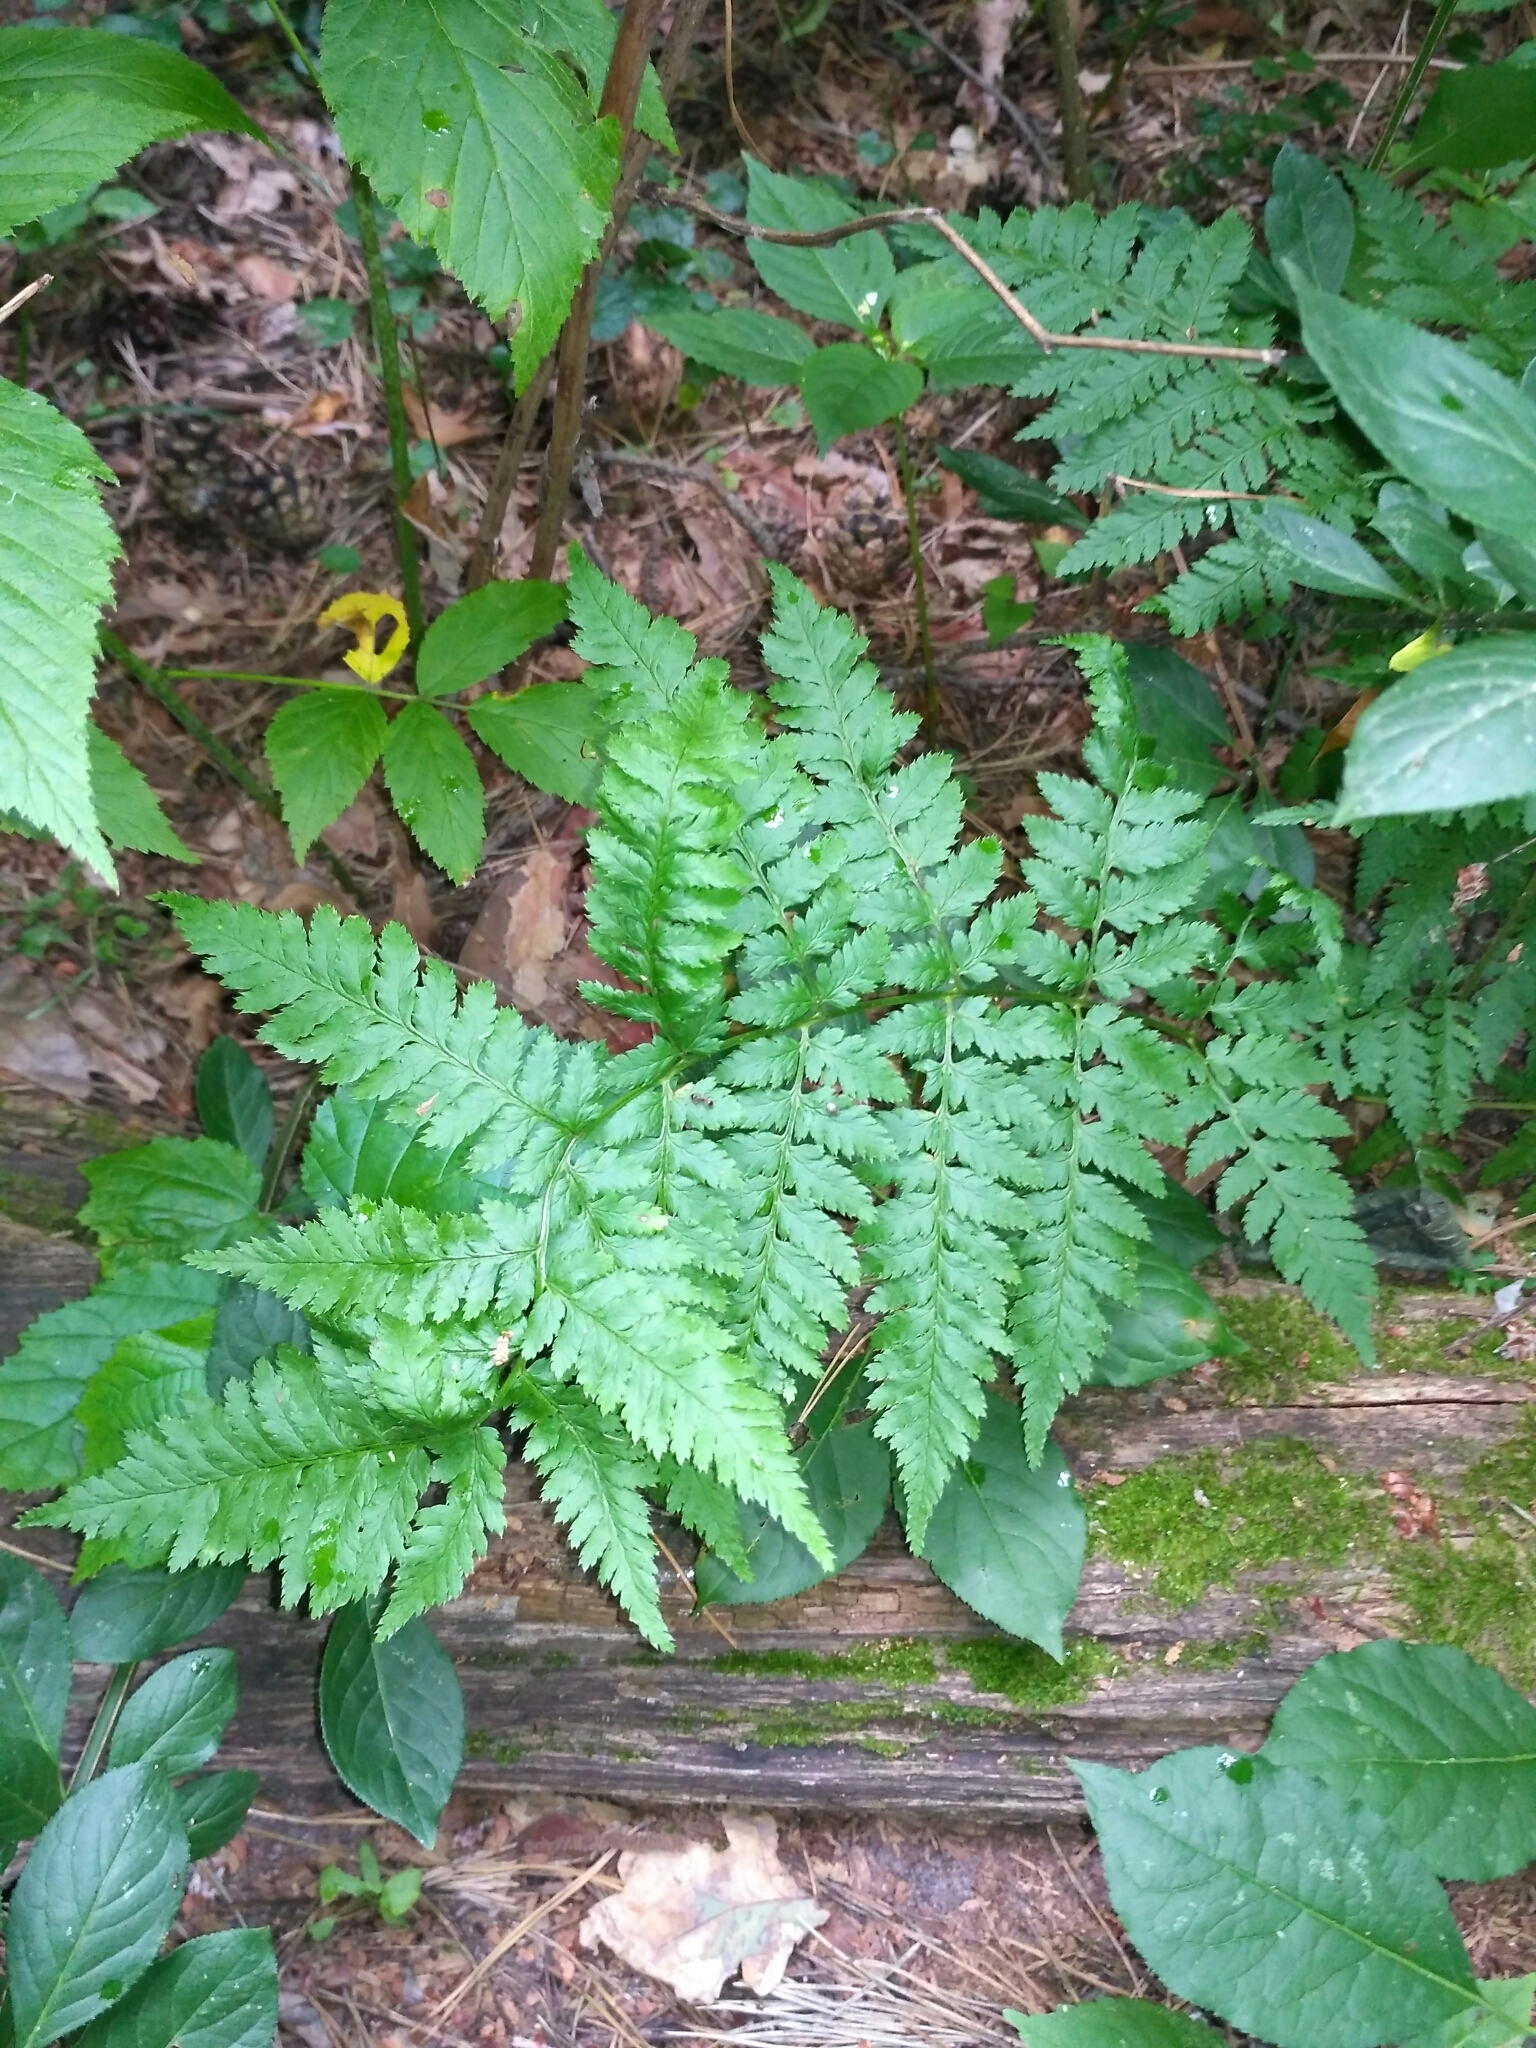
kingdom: Plantae
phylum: Tracheophyta
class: Polypodiopsida
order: Polypodiales
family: Dryopteridaceae
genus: Dryopteris
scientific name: Dryopteris carthusiana
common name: Narrow buckler-fern
